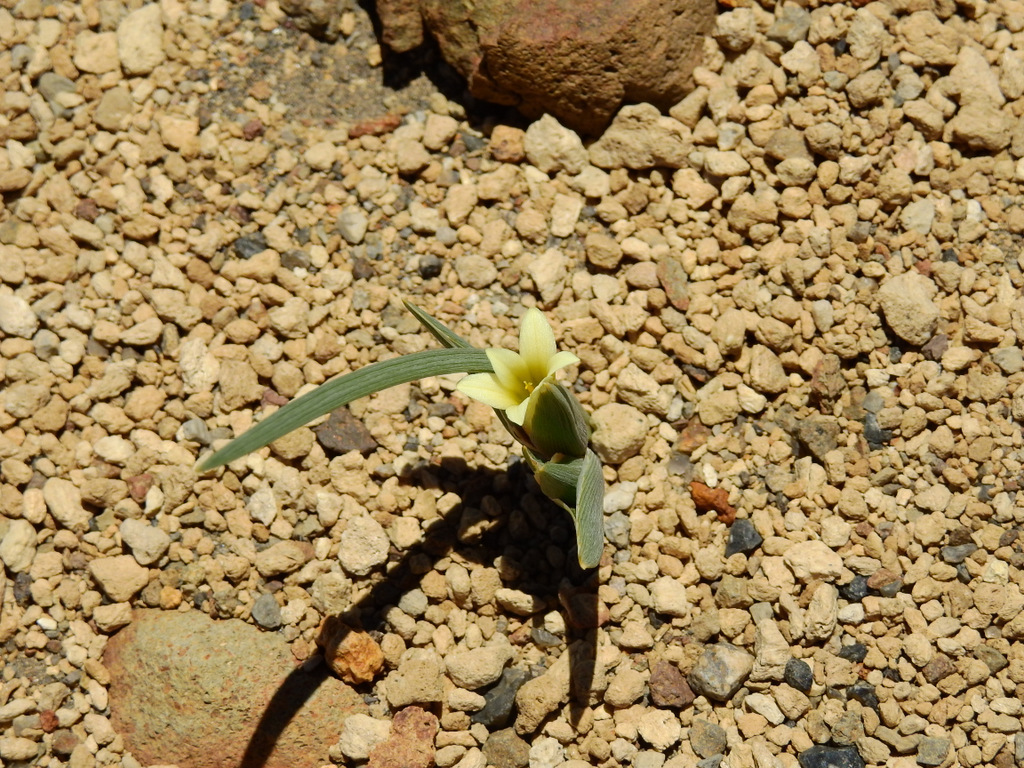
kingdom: Plantae
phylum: Tracheophyta
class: Liliopsida
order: Asparagales
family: Iridaceae
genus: Olsynium
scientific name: Olsynium obscurum
